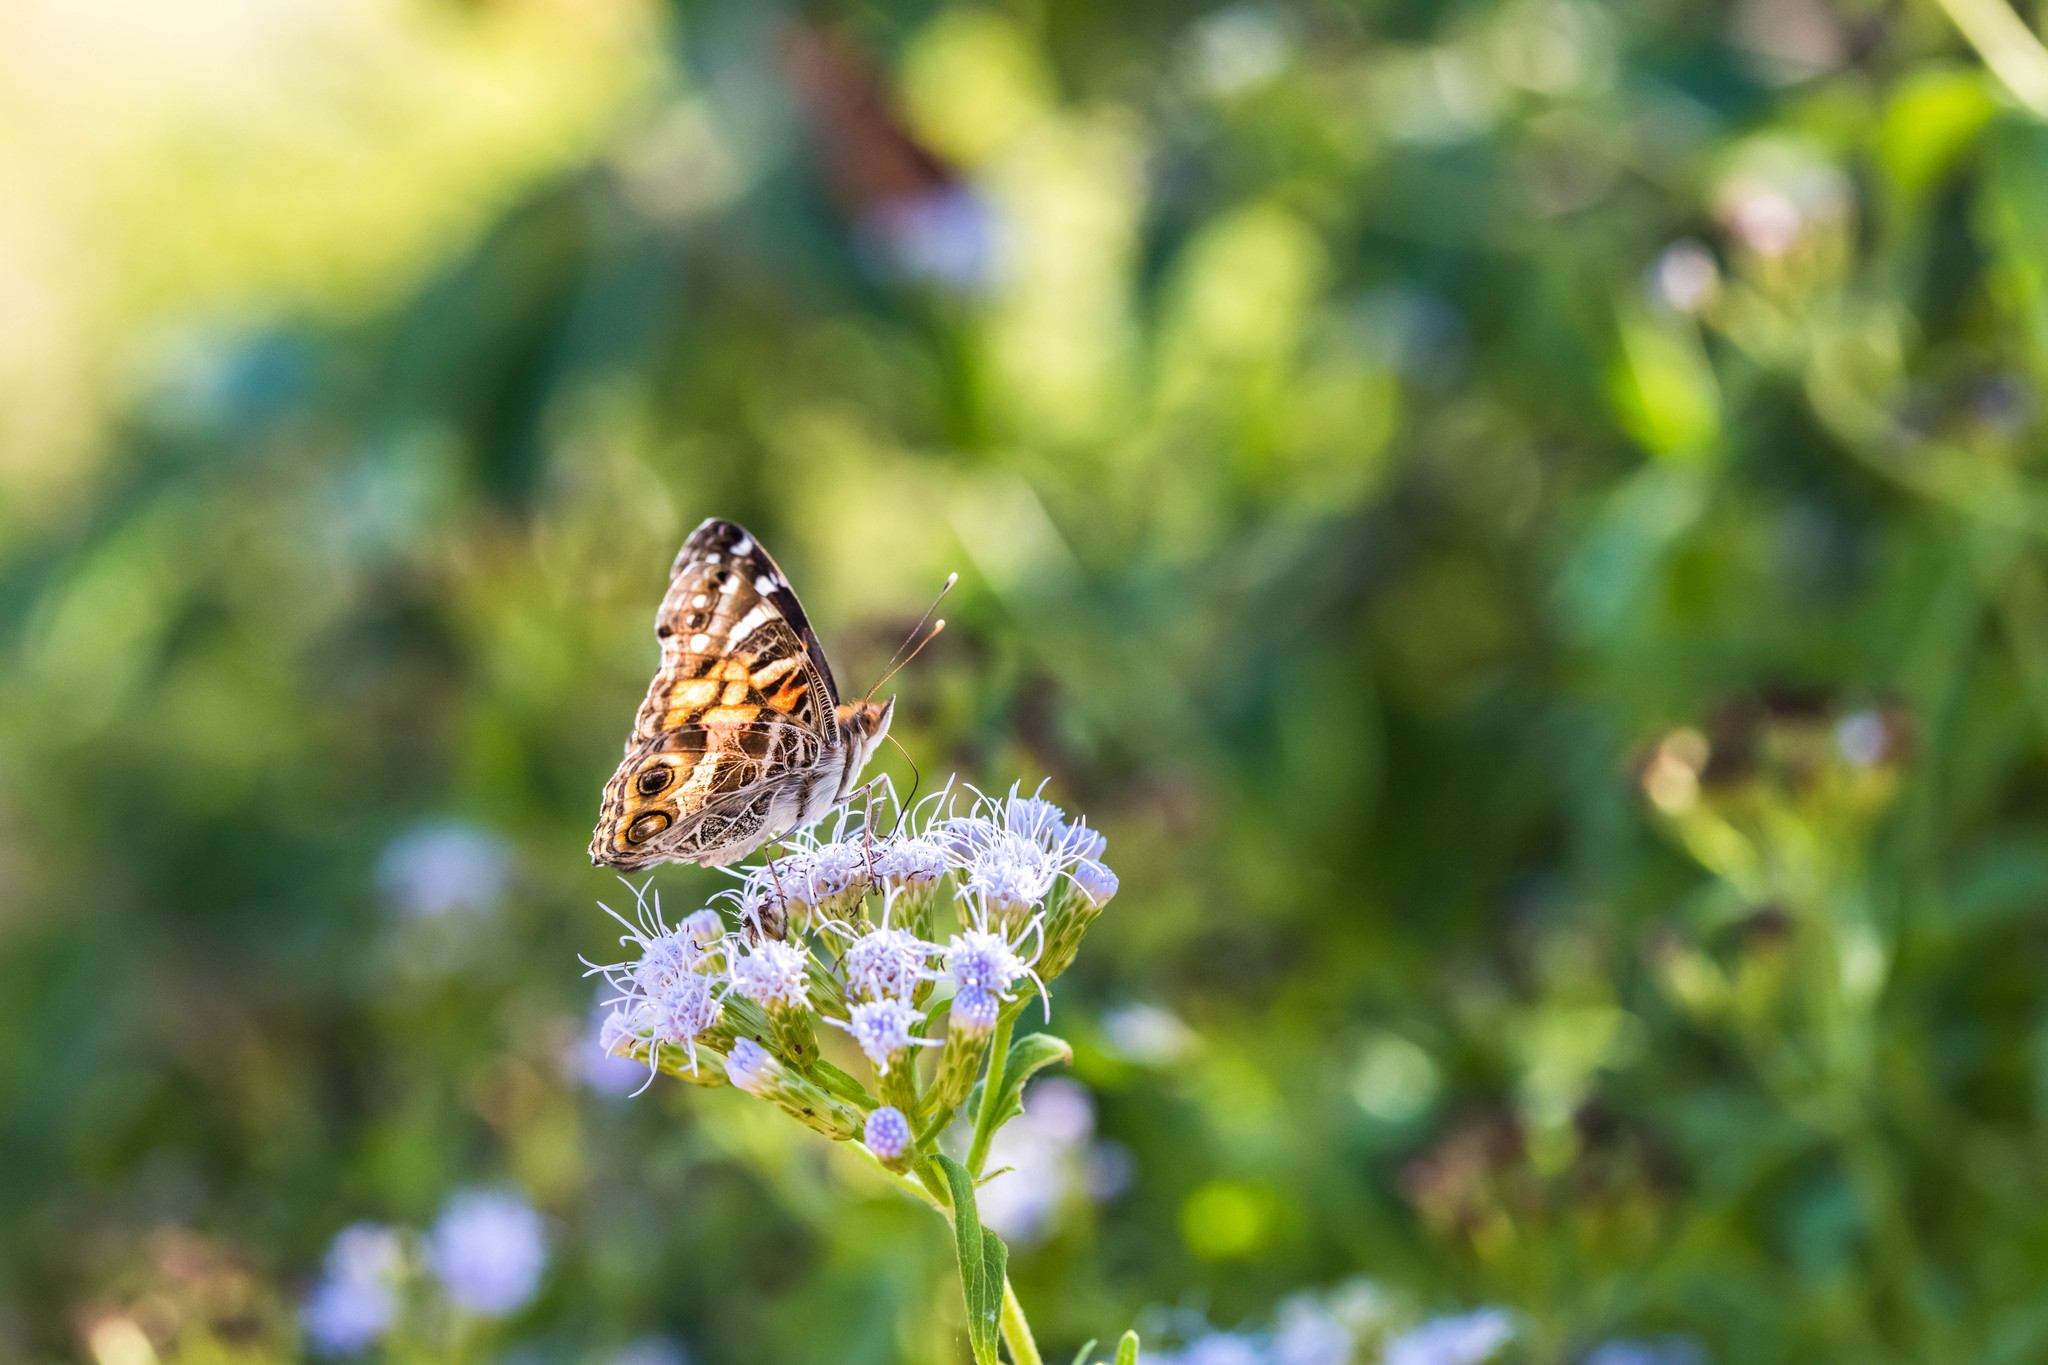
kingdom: Animalia
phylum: Arthropoda
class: Insecta
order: Lepidoptera
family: Nymphalidae
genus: Vanessa
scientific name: Vanessa virginiensis
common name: American lady
